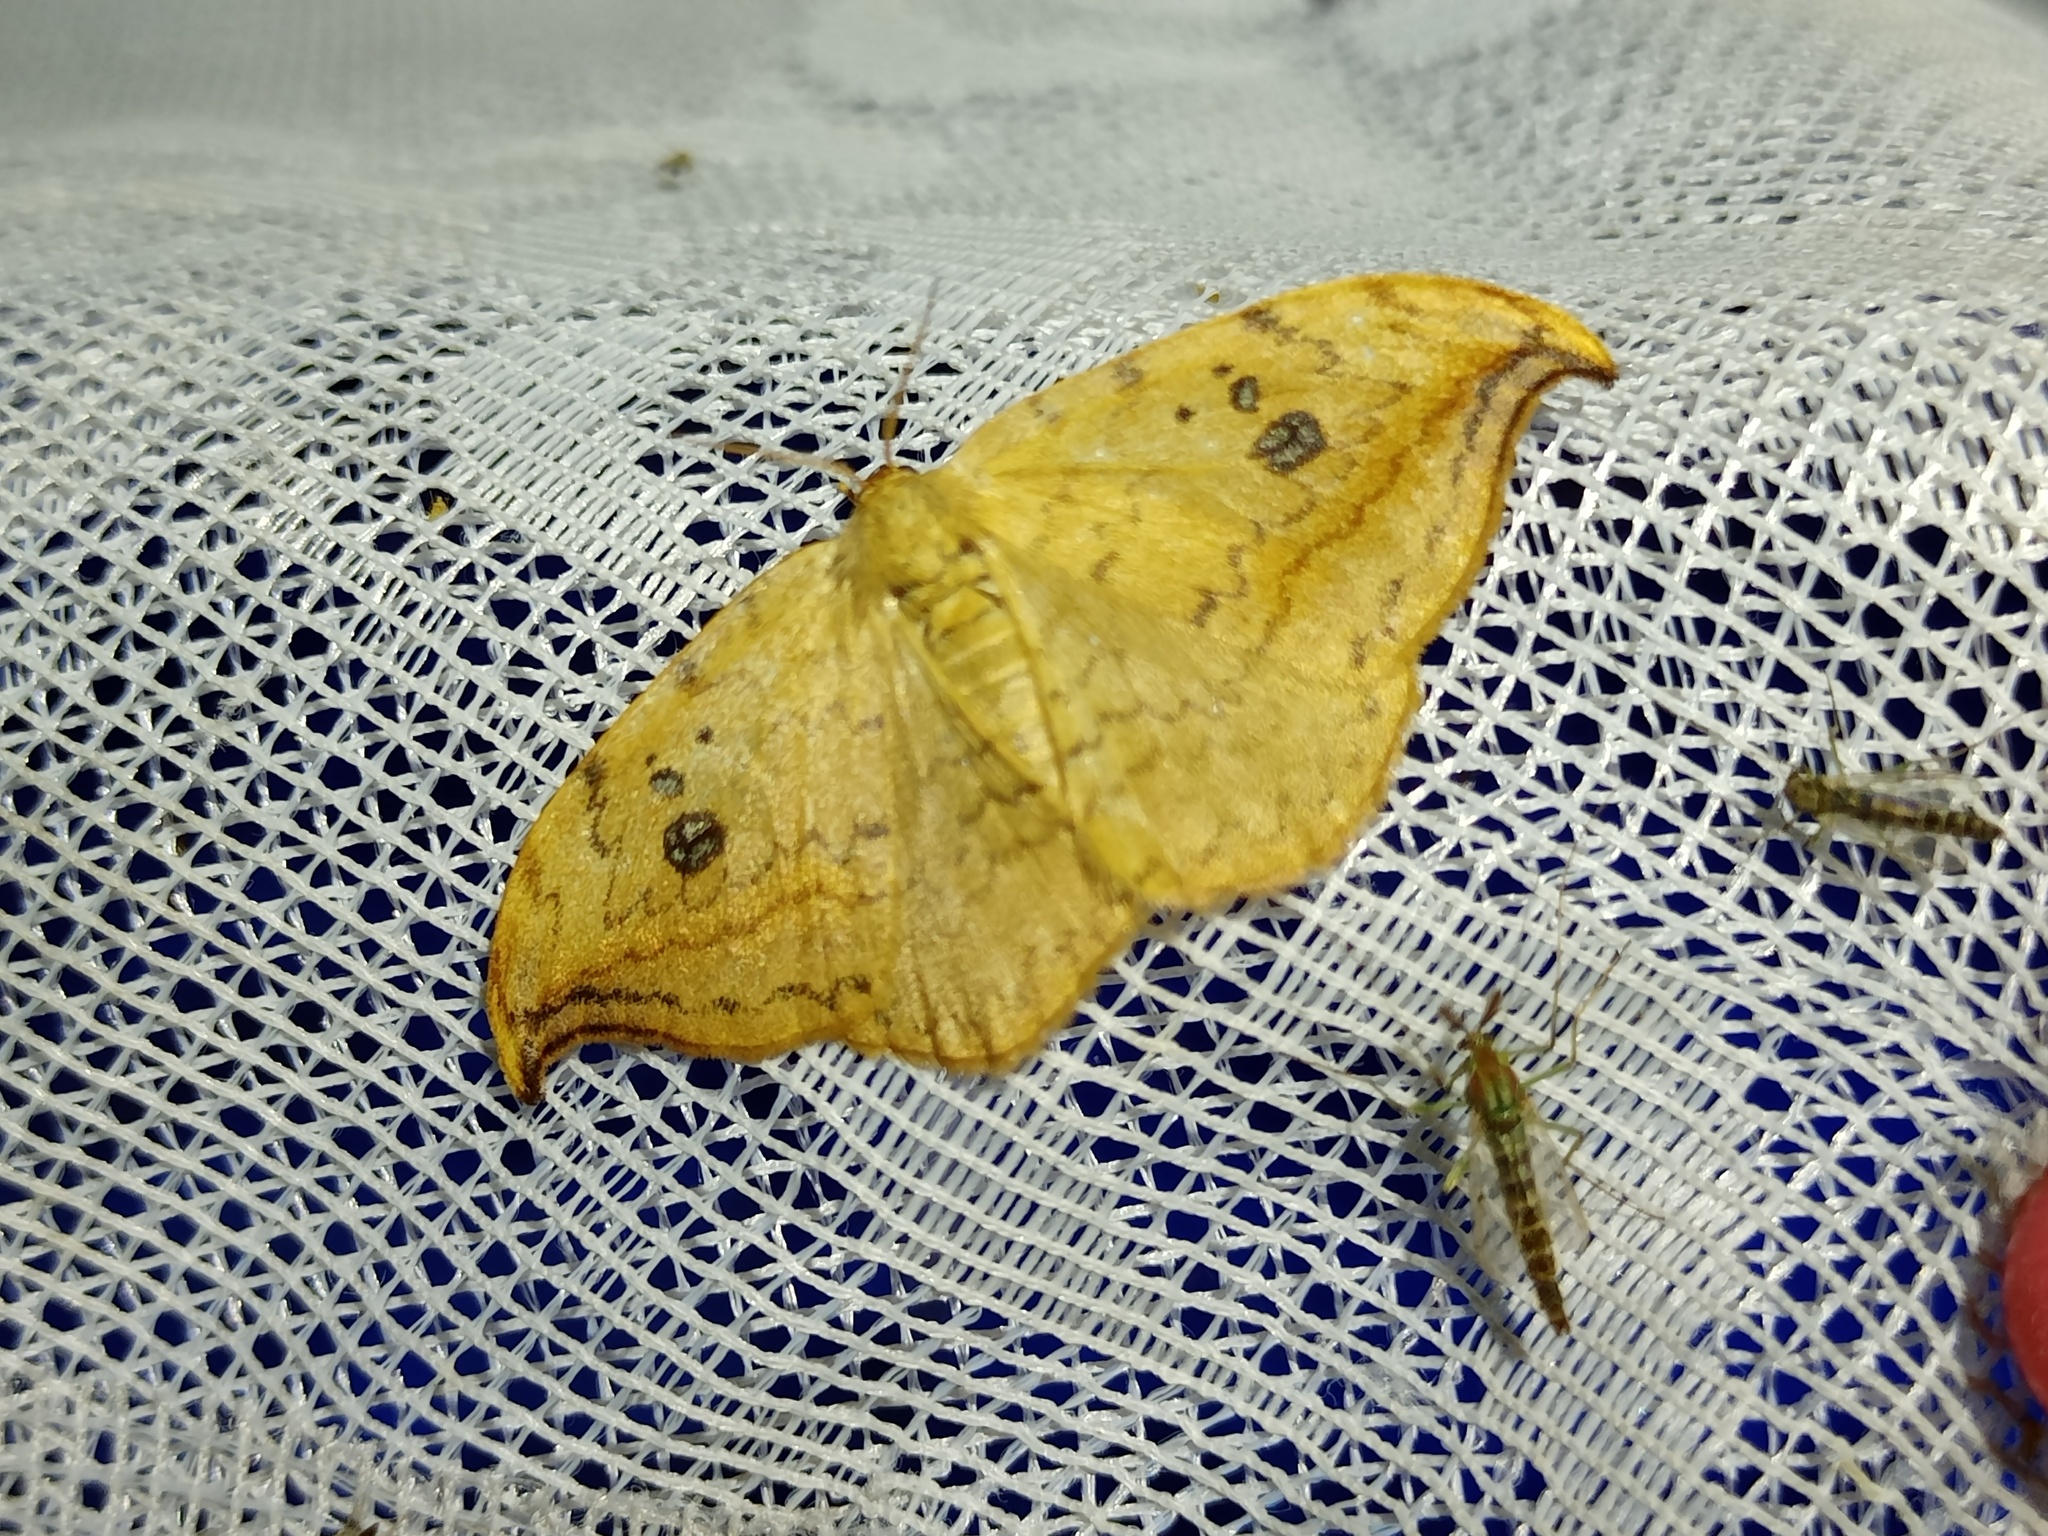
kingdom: Animalia
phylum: Arthropoda
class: Insecta
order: Lepidoptera
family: Drepanidae
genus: Drepana
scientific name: Drepana falcataria
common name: Pebble hook-tip
